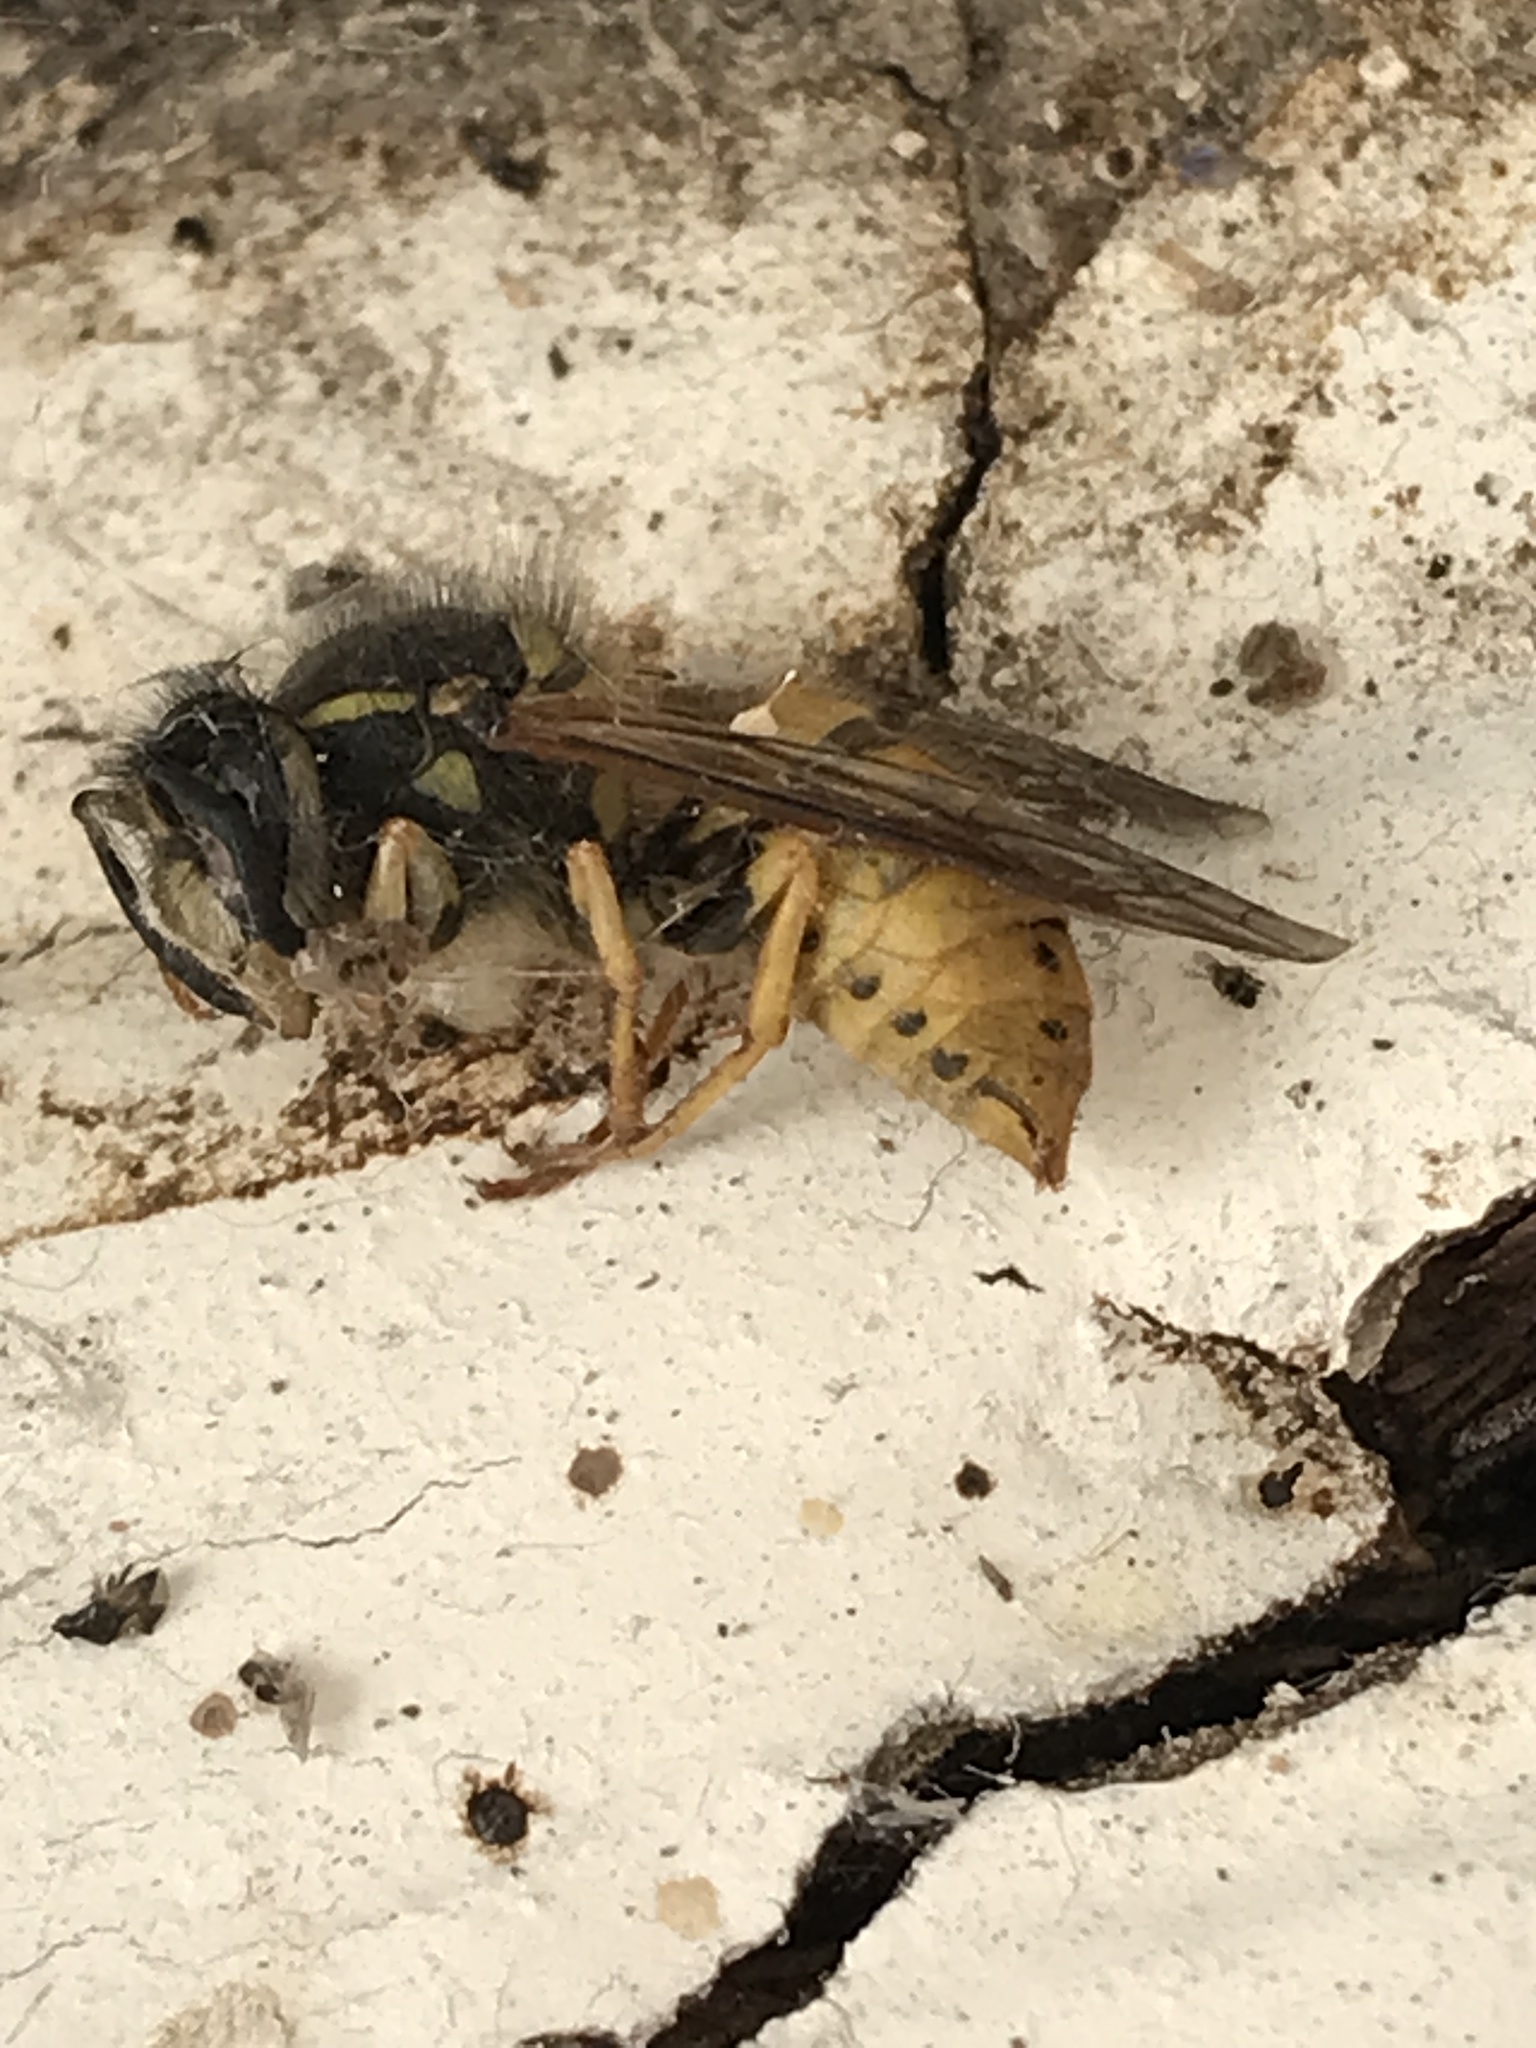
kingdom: Animalia
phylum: Arthropoda
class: Insecta
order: Hymenoptera
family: Vespidae
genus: Vespula
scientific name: Vespula germanica
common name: German wasp
